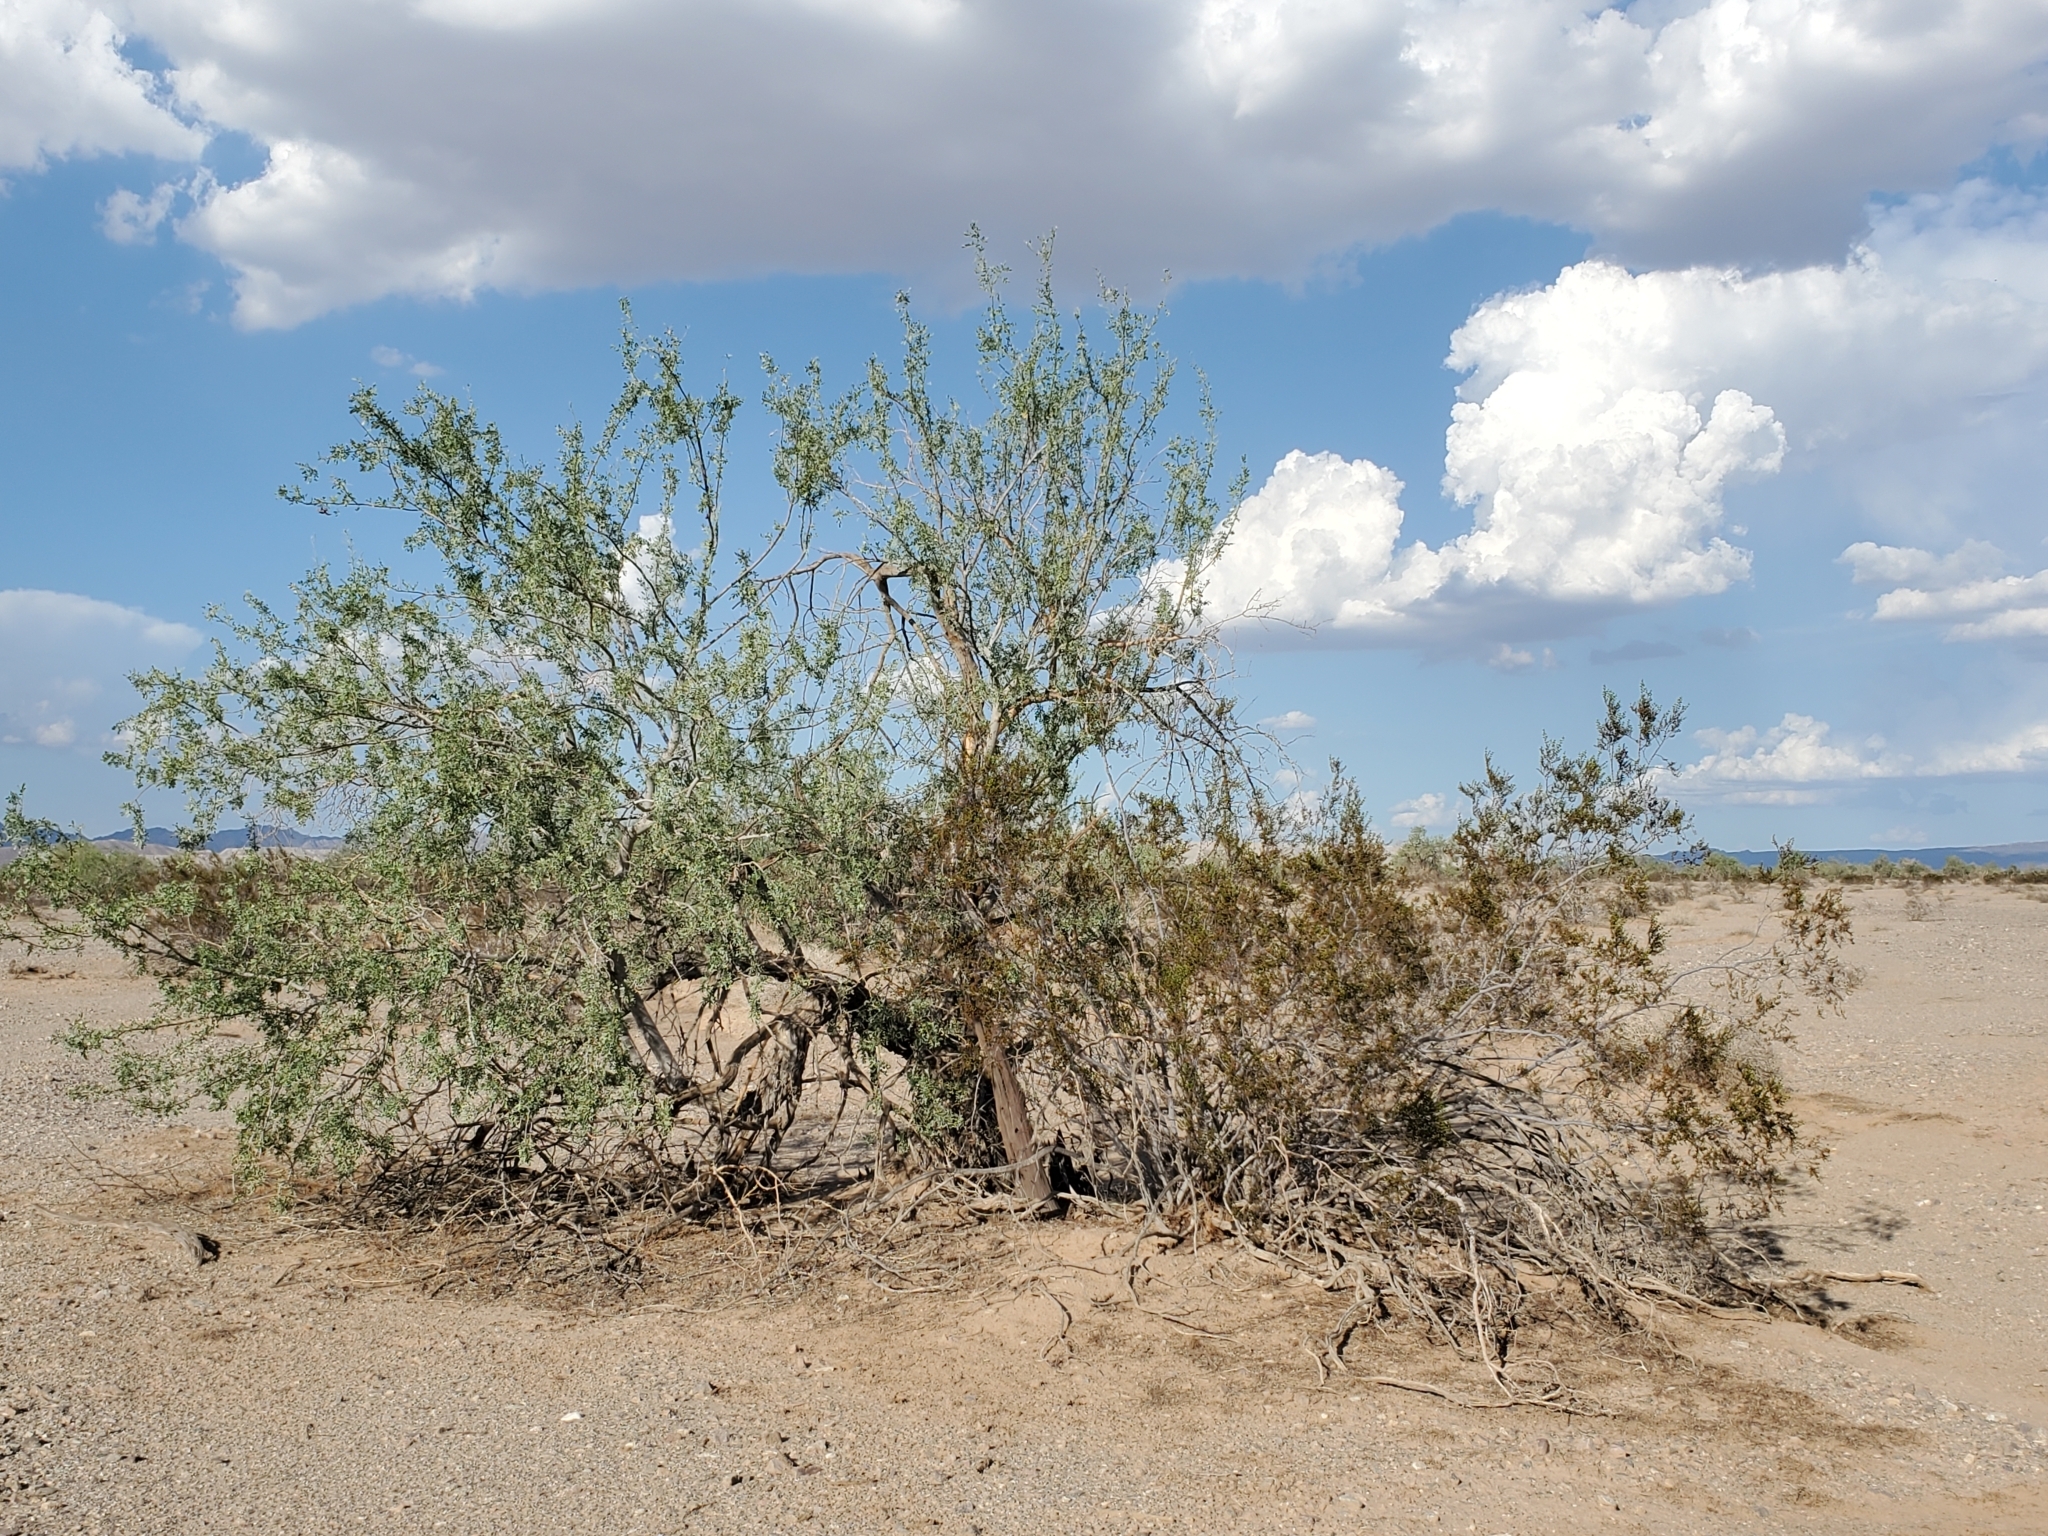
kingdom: Plantae
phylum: Tracheophyta
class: Magnoliopsida
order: Fabales
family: Fabaceae
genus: Olneya
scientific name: Olneya tesota
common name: Desert ironwood
